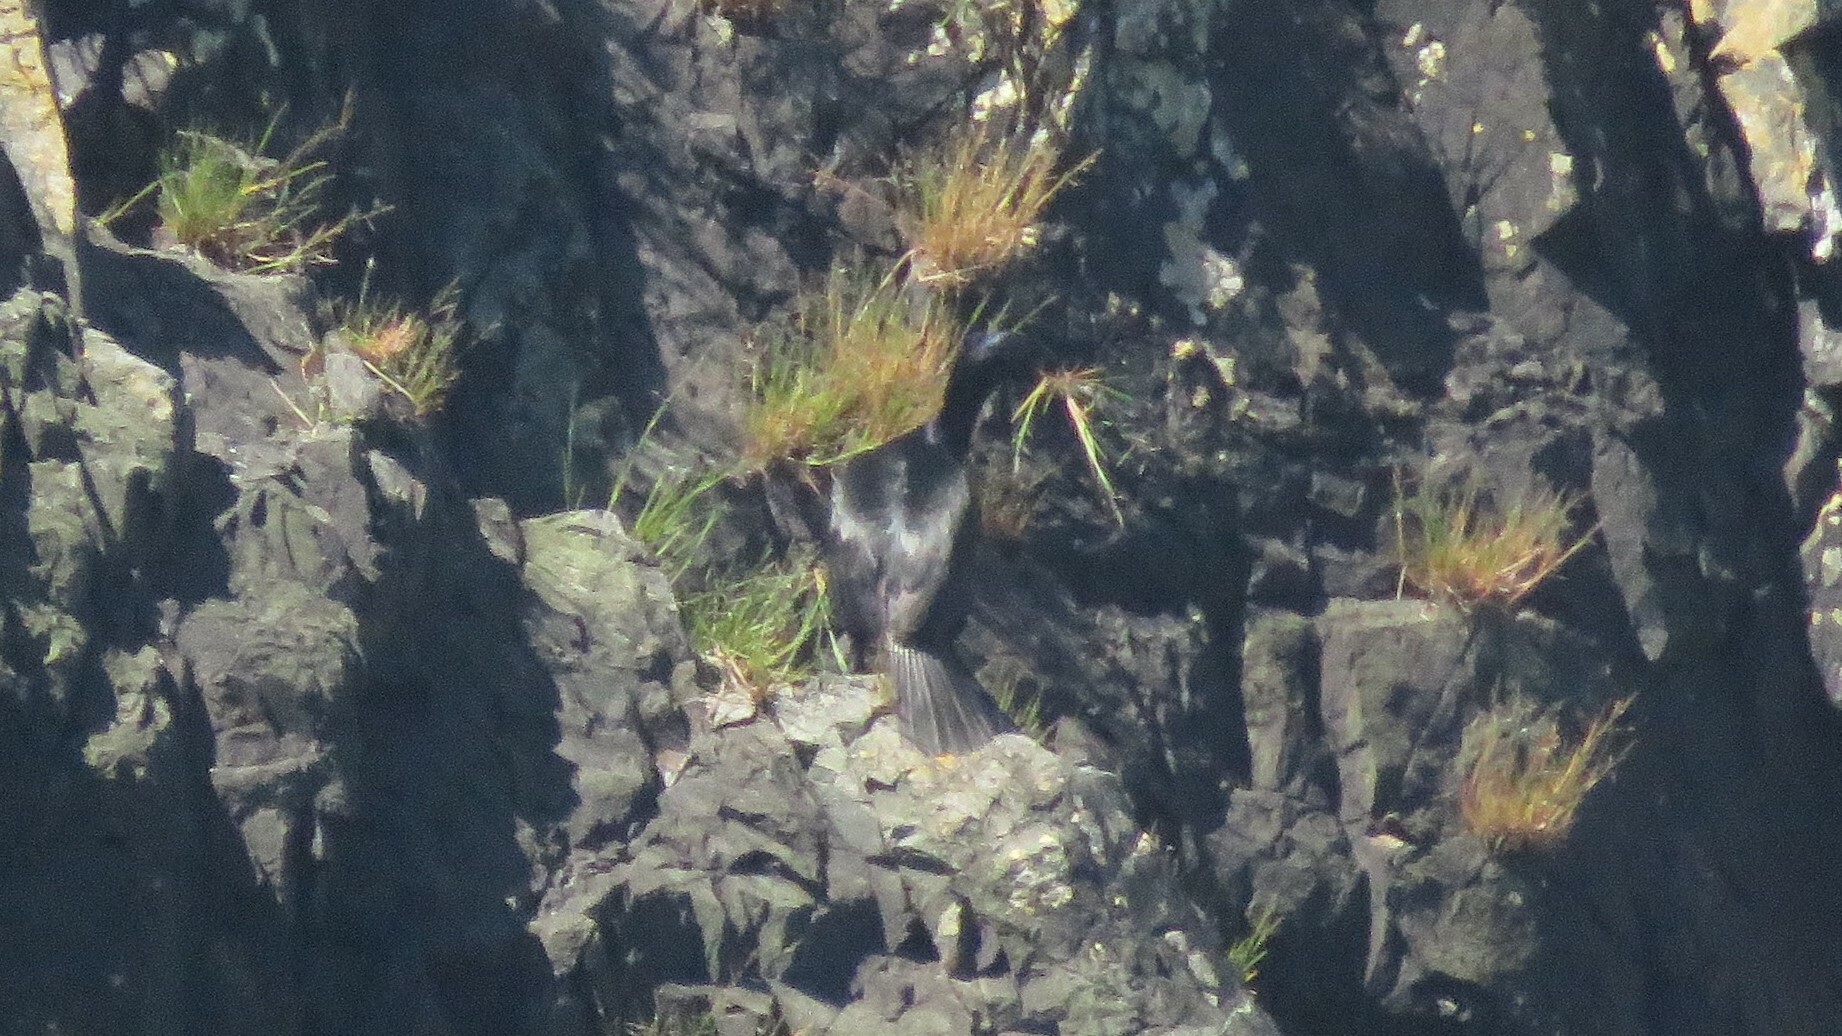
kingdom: Animalia
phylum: Chordata
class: Aves
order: Suliformes
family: Phalacrocoracidae
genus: Phalacrocorax
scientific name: Phalacrocorax pelagicus
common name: Pelagic cormorant
